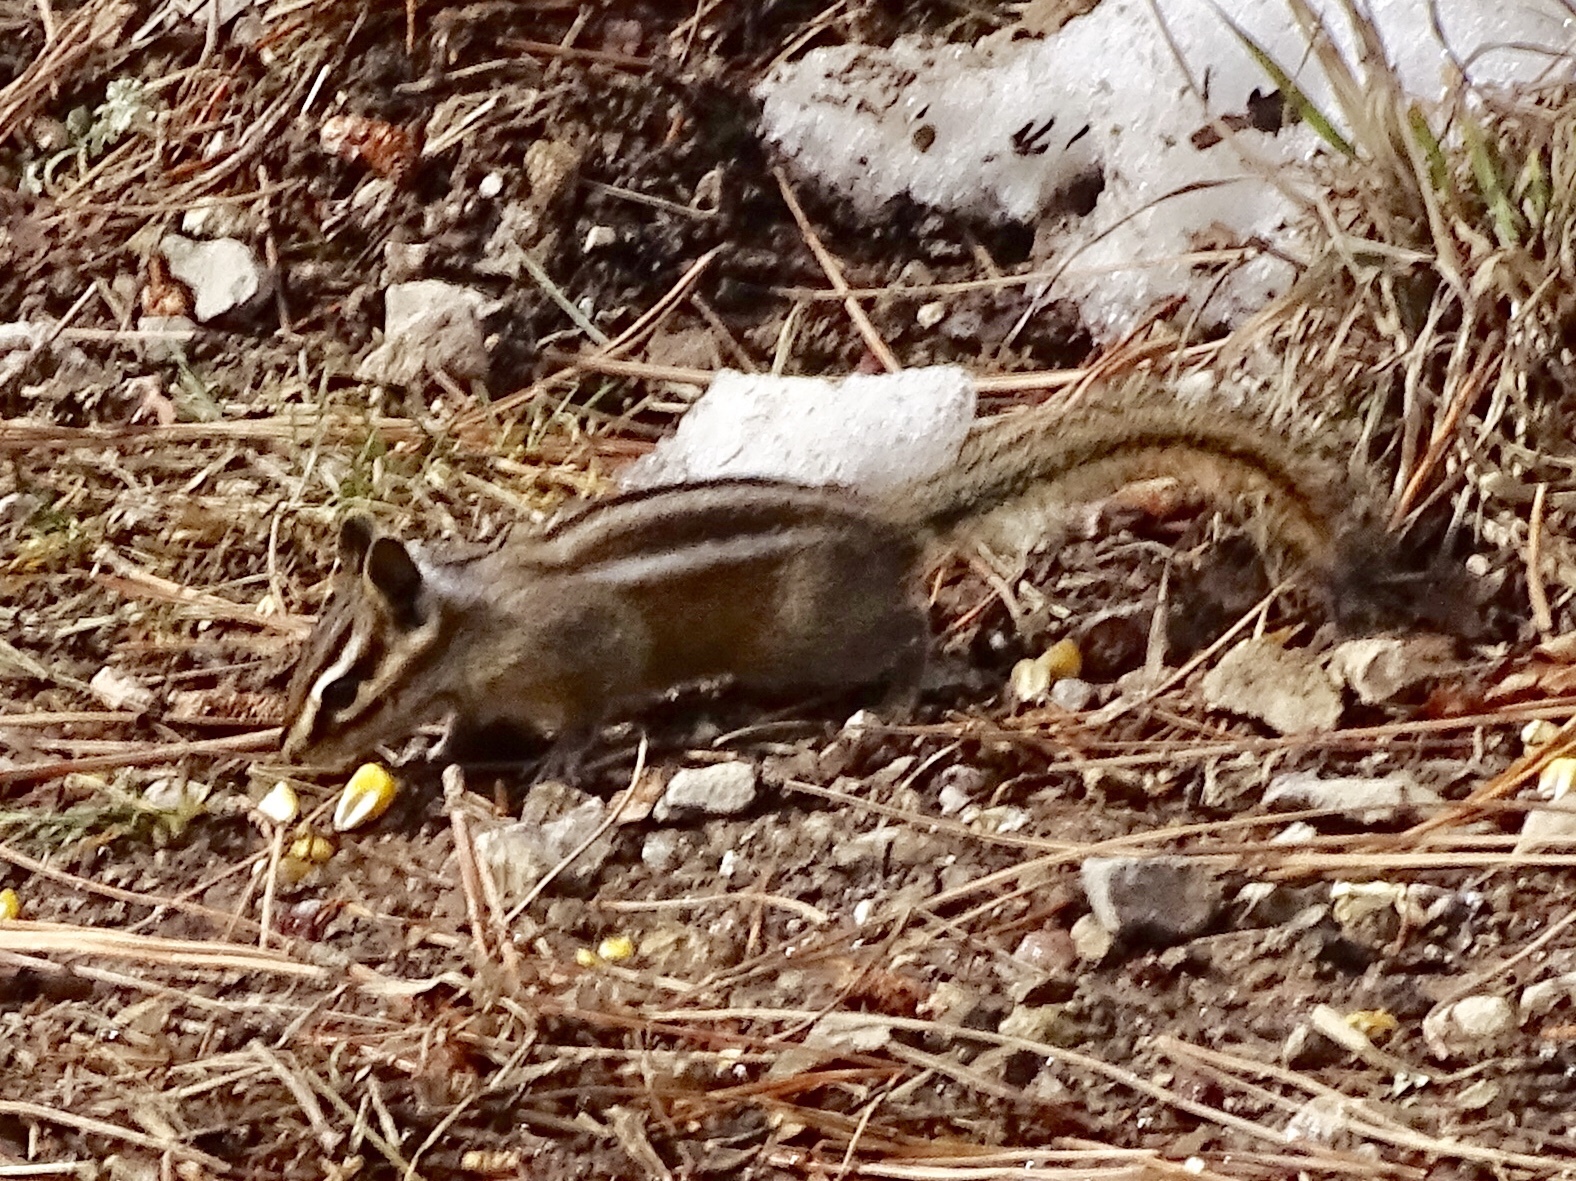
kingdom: Animalia
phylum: Chordata
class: Mammalia
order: Rodentia
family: Sciuridae
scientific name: Sciuridae
